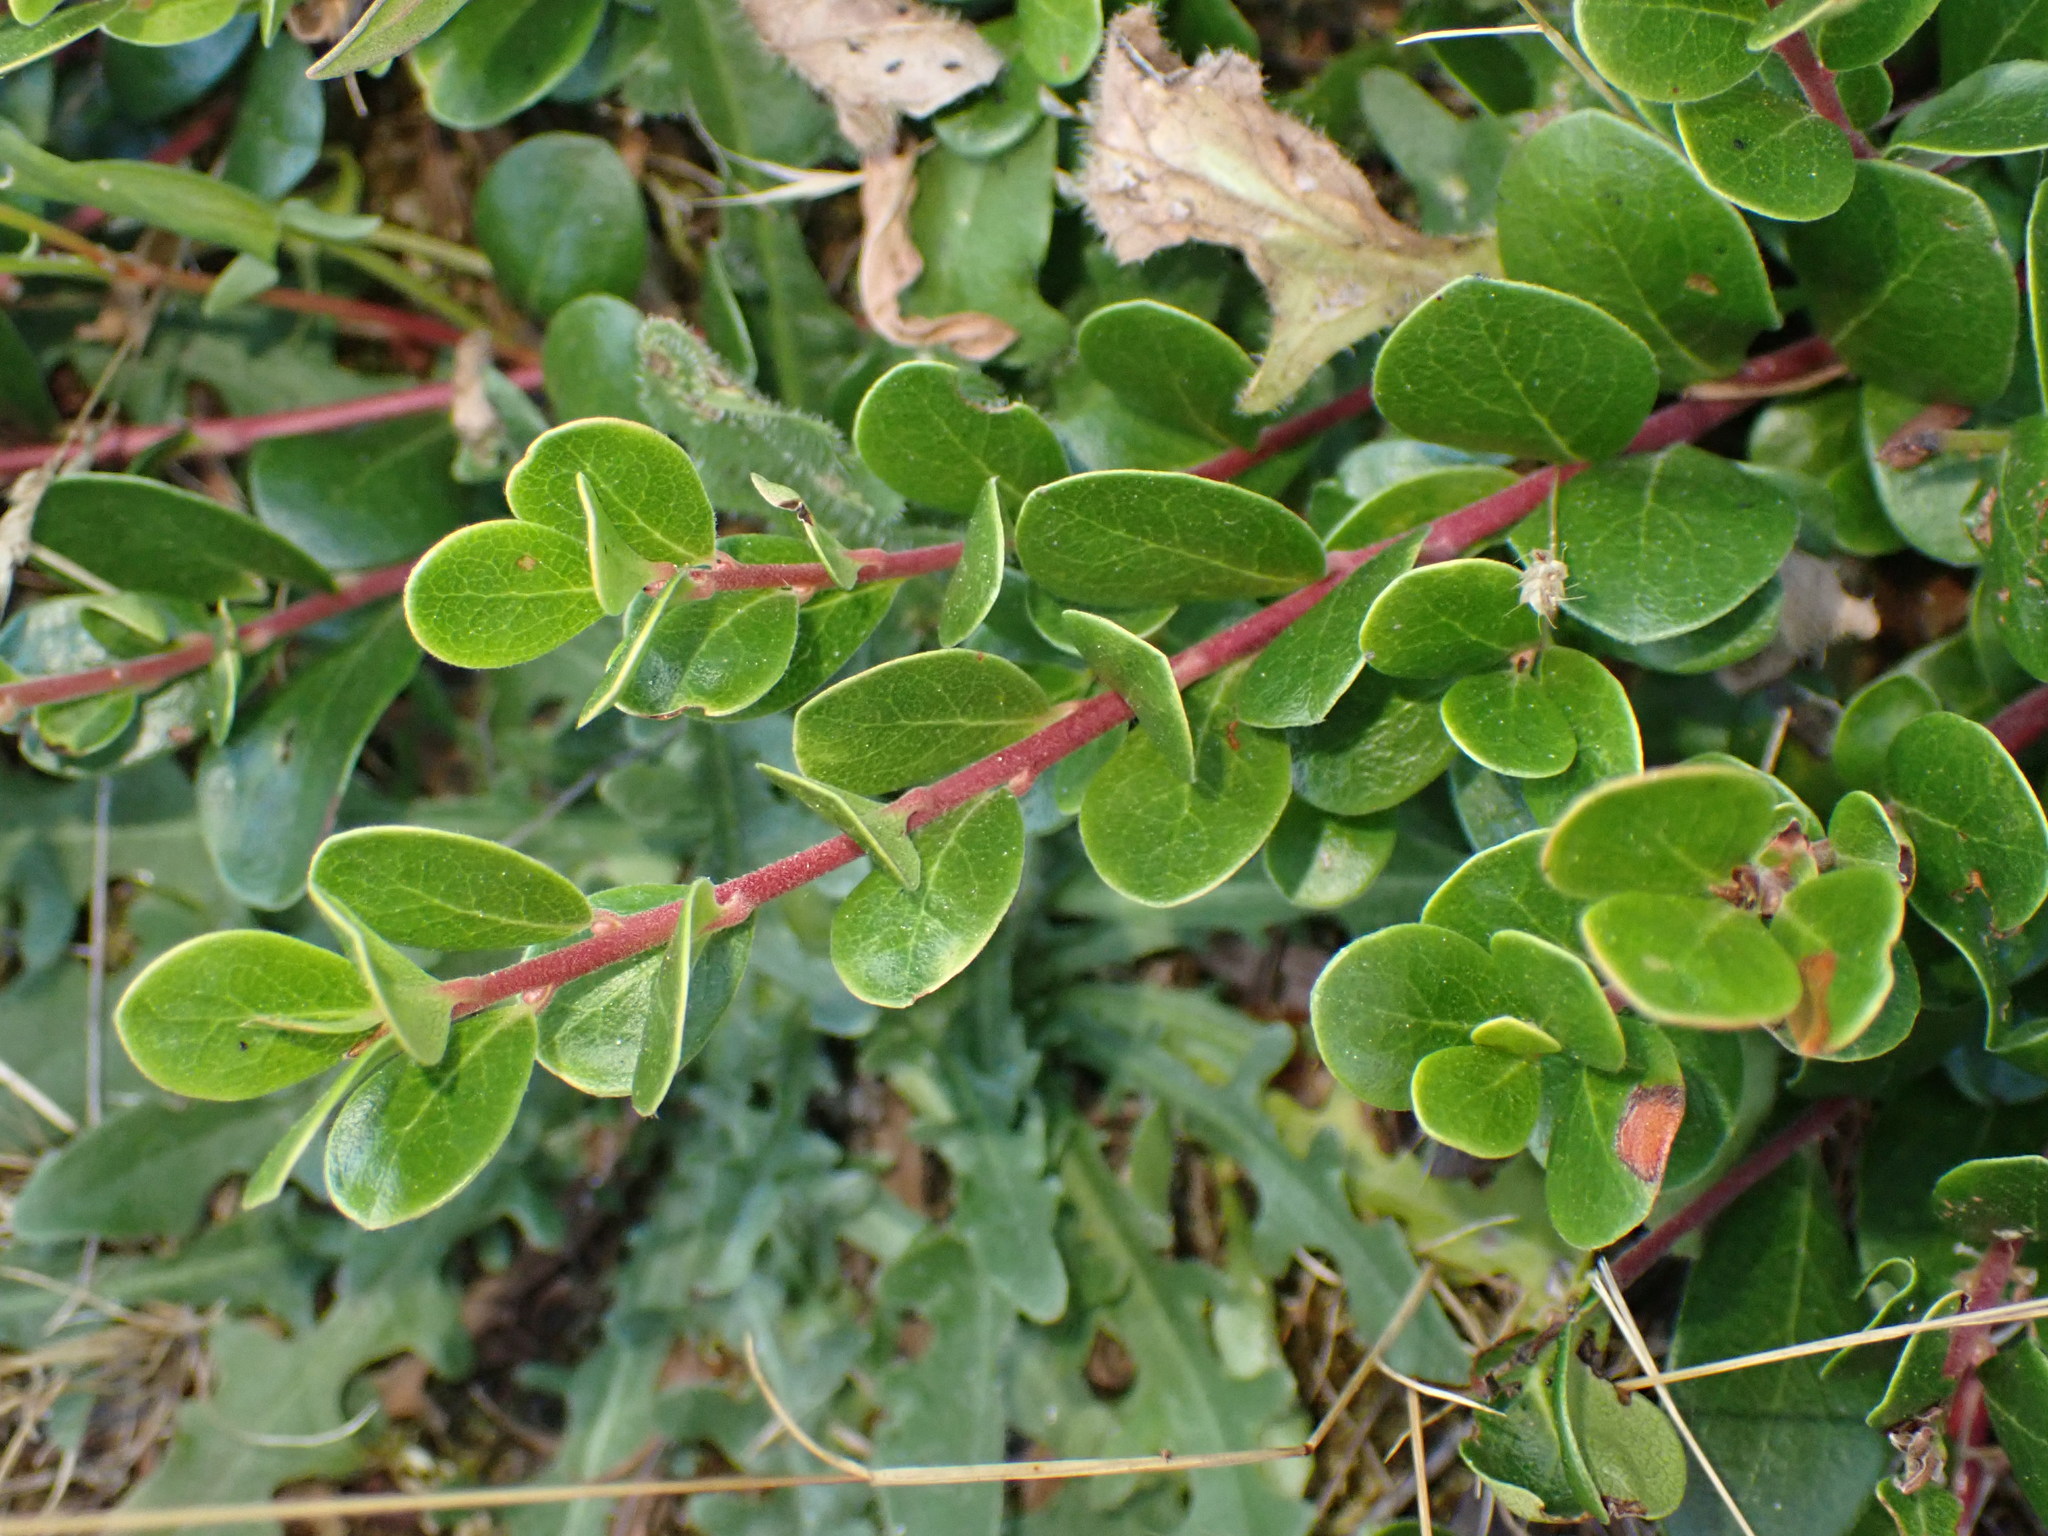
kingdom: Plantae
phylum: Tracheophyta
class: Magnoliopsida
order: Ericales
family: Ericaceae
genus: Arctostaphylos
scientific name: Arctostaphylos uva-ursi
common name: Bearberry
